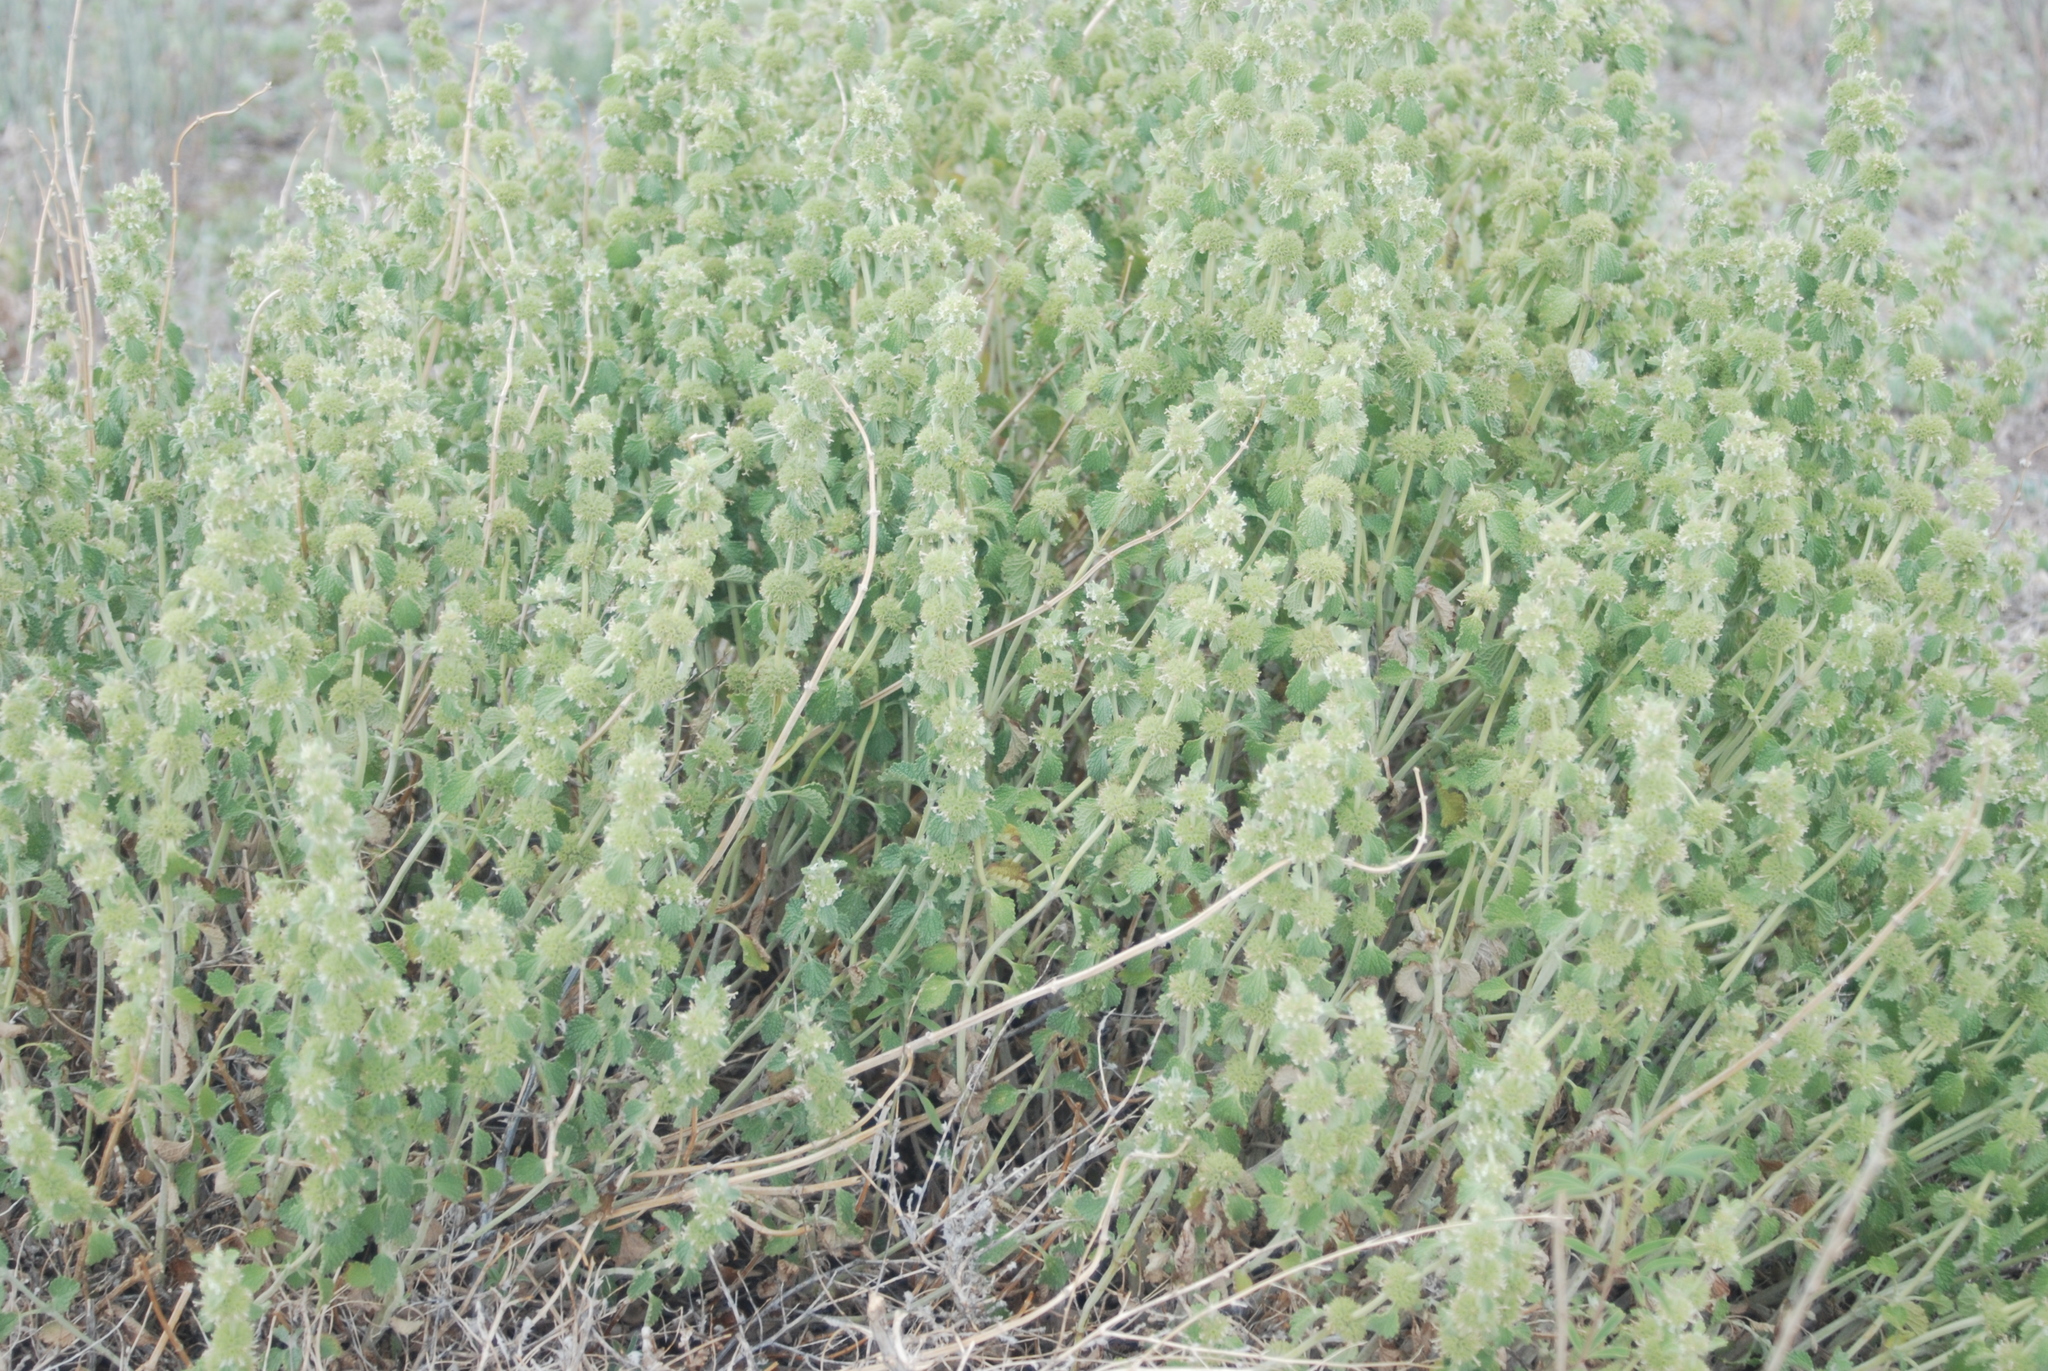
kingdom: Plantae
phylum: Tracheophyta
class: Magnoliopsida
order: Lamiales
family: Lamiaceae
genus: Marrubium
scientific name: Marrubium vulgare
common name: Horehound
